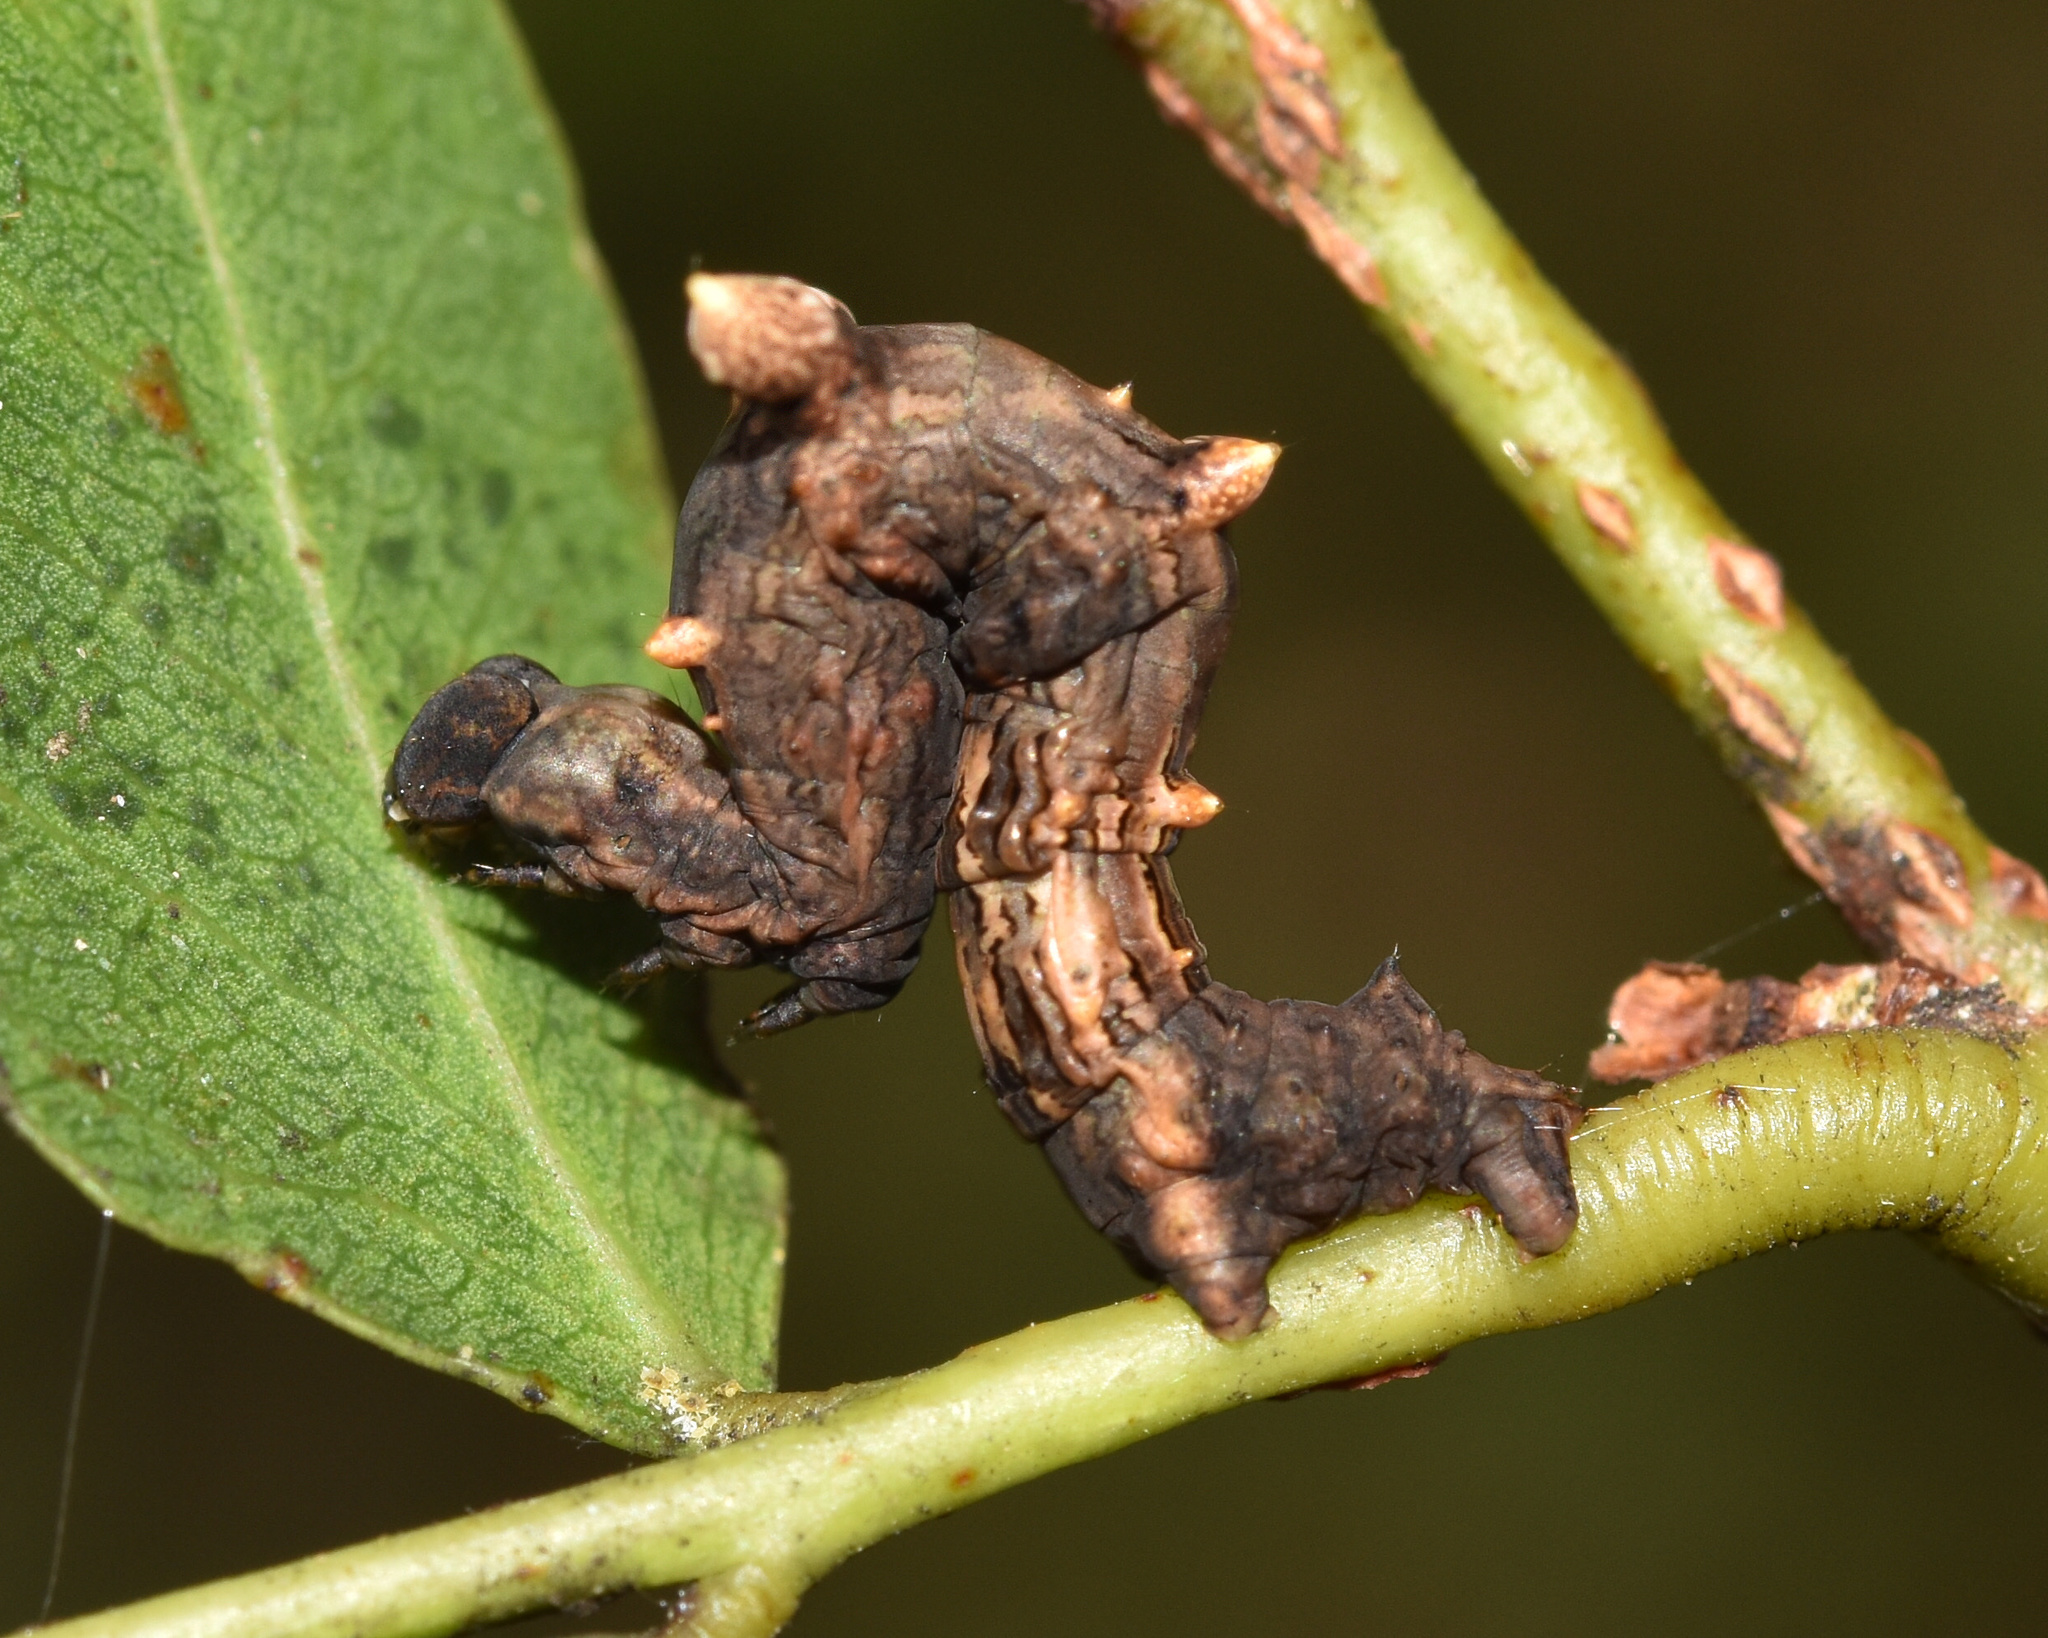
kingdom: Animalia
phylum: Arthropoda
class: Insecta
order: Lepidoptera
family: Geometridae
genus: Xenimpia
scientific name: Xenimpia erosa
